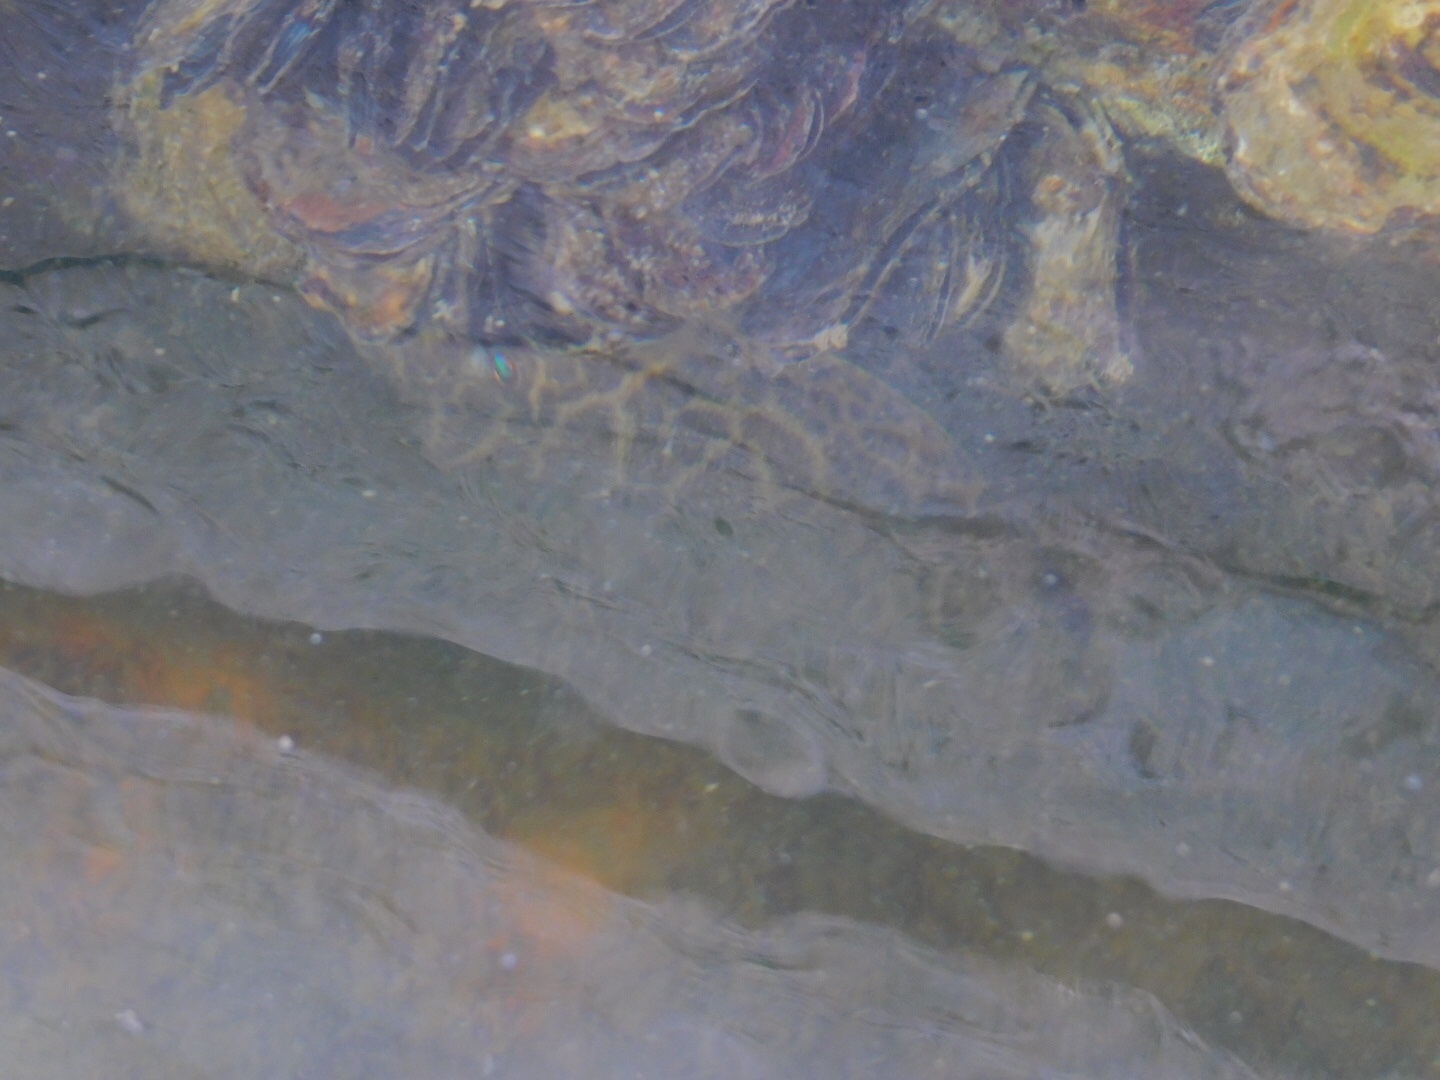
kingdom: Animalia
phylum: Chordata
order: Tetraodontiformes
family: Tetraodontidae
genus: Sphoeroides
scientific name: Sphoeroides testudineus
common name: Checkered puffer
